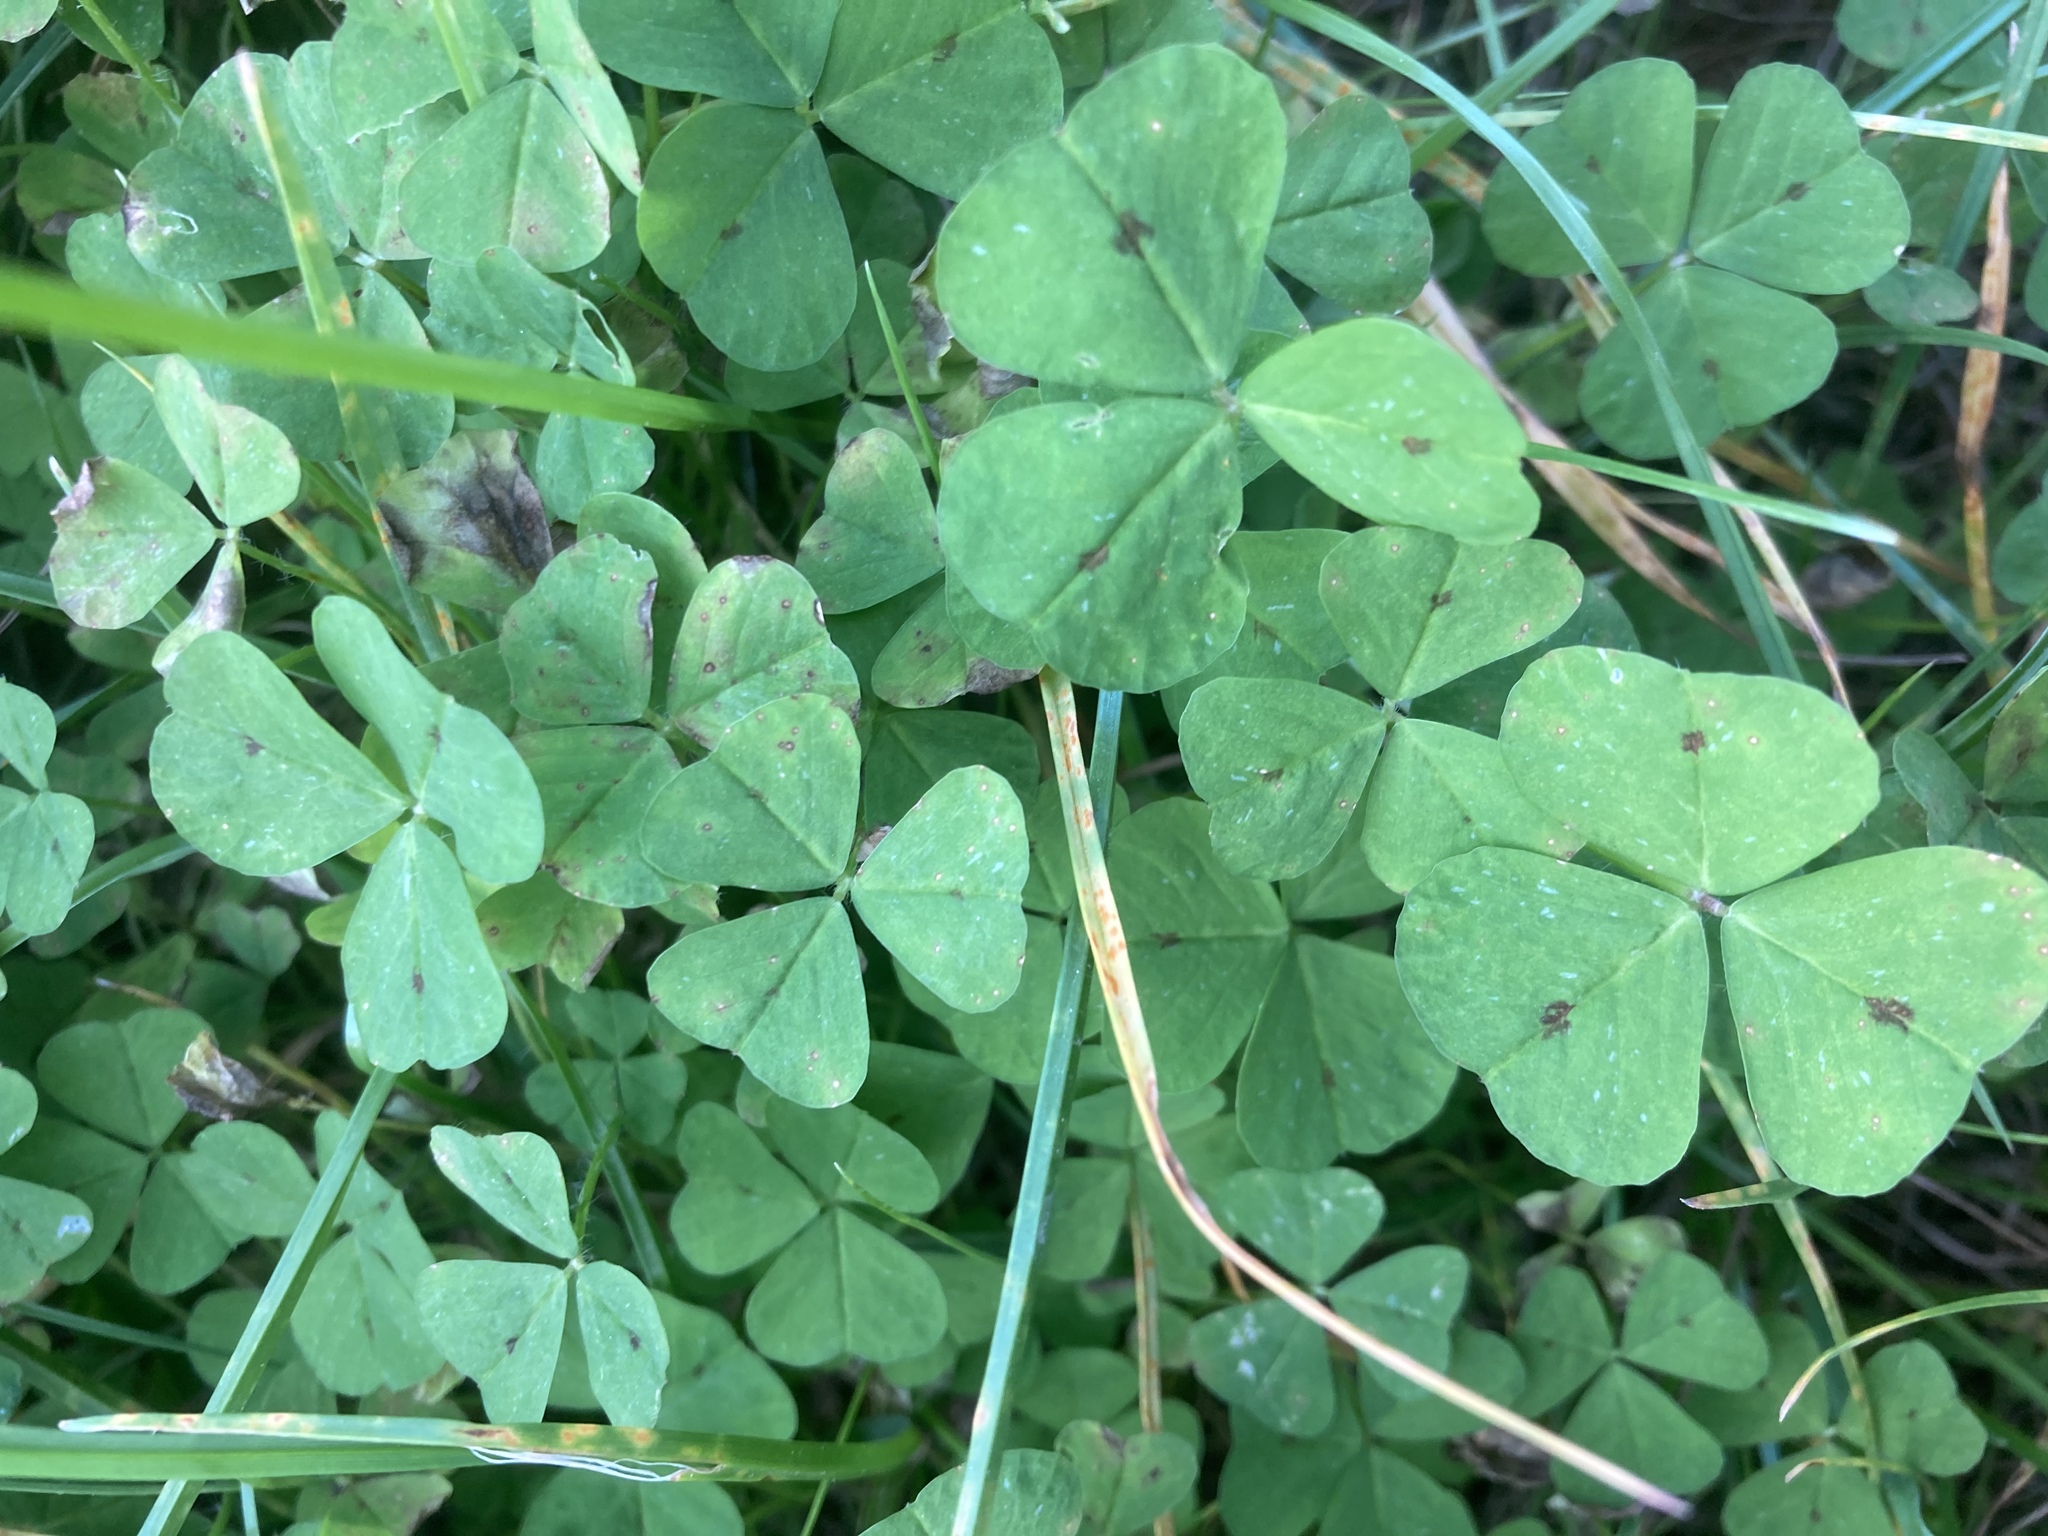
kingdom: Plantae
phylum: Tracheophyta
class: Magnoliopsida
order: Fabales
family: Fabaceae
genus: Medicago
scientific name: Medicago arabica
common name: Spotted medick
